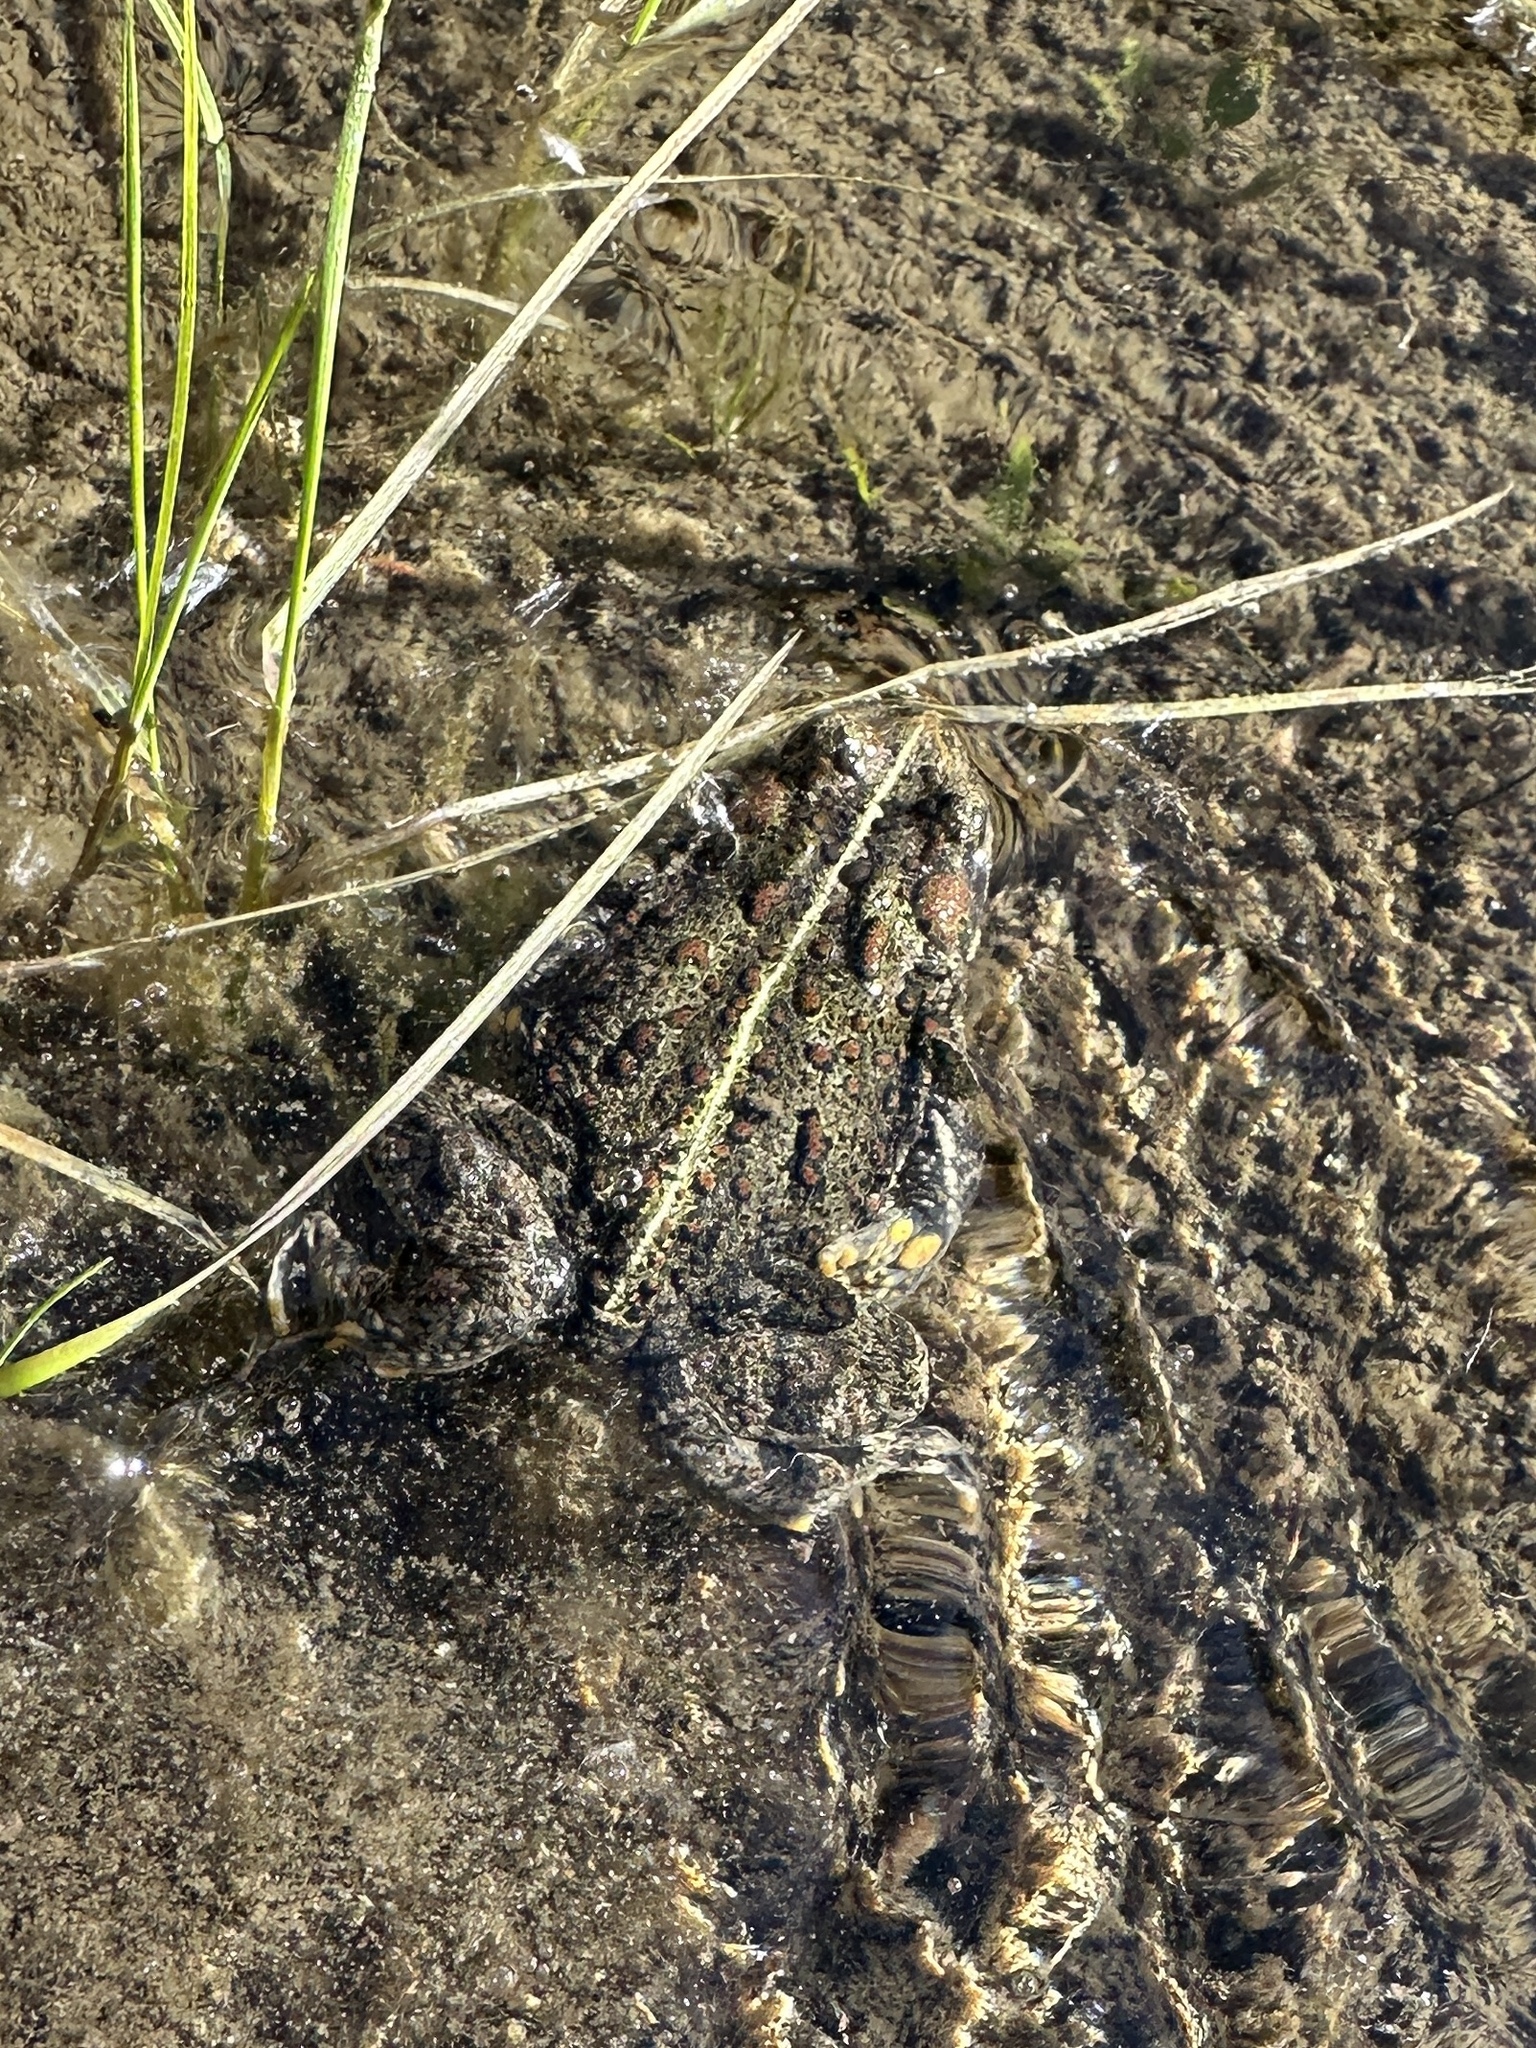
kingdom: Animalia
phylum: Chordata
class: Amphibia
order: Anura
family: Bufonidae
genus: Anaxyrus
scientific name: Anaxyrus boreas
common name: Western toad
